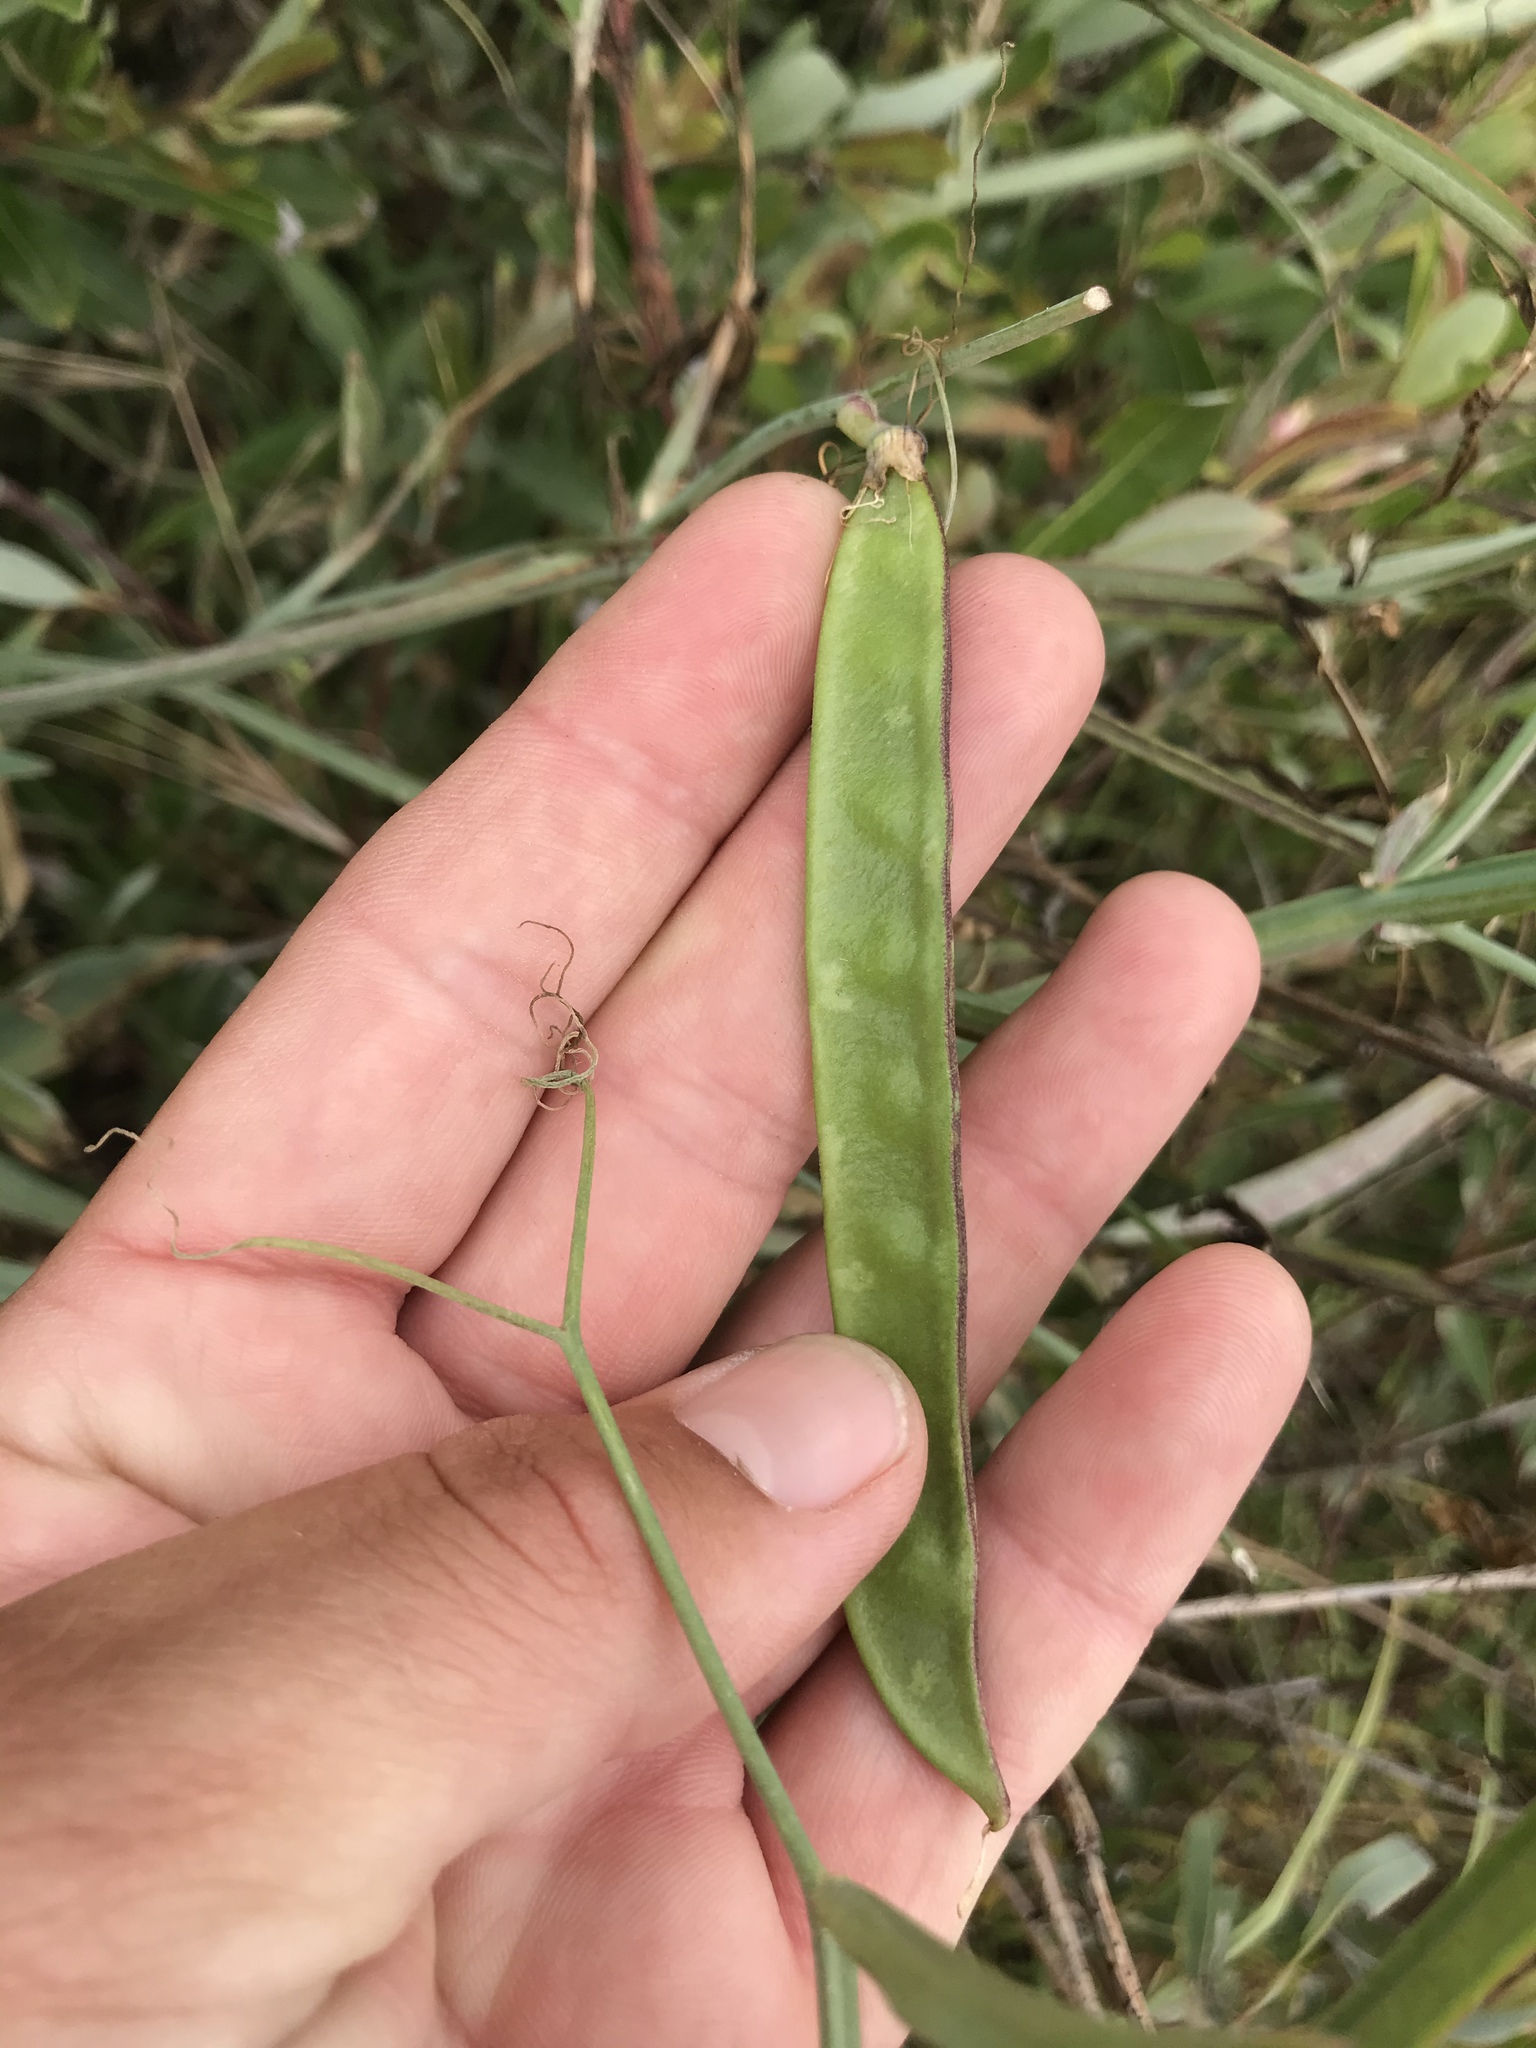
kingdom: Plantae
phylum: Tracheophyta
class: Magnoliopsida
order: Fabales
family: Fabaceae
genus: Lathyrus
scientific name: Lathyrus tingitanus
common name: Tangier pea
